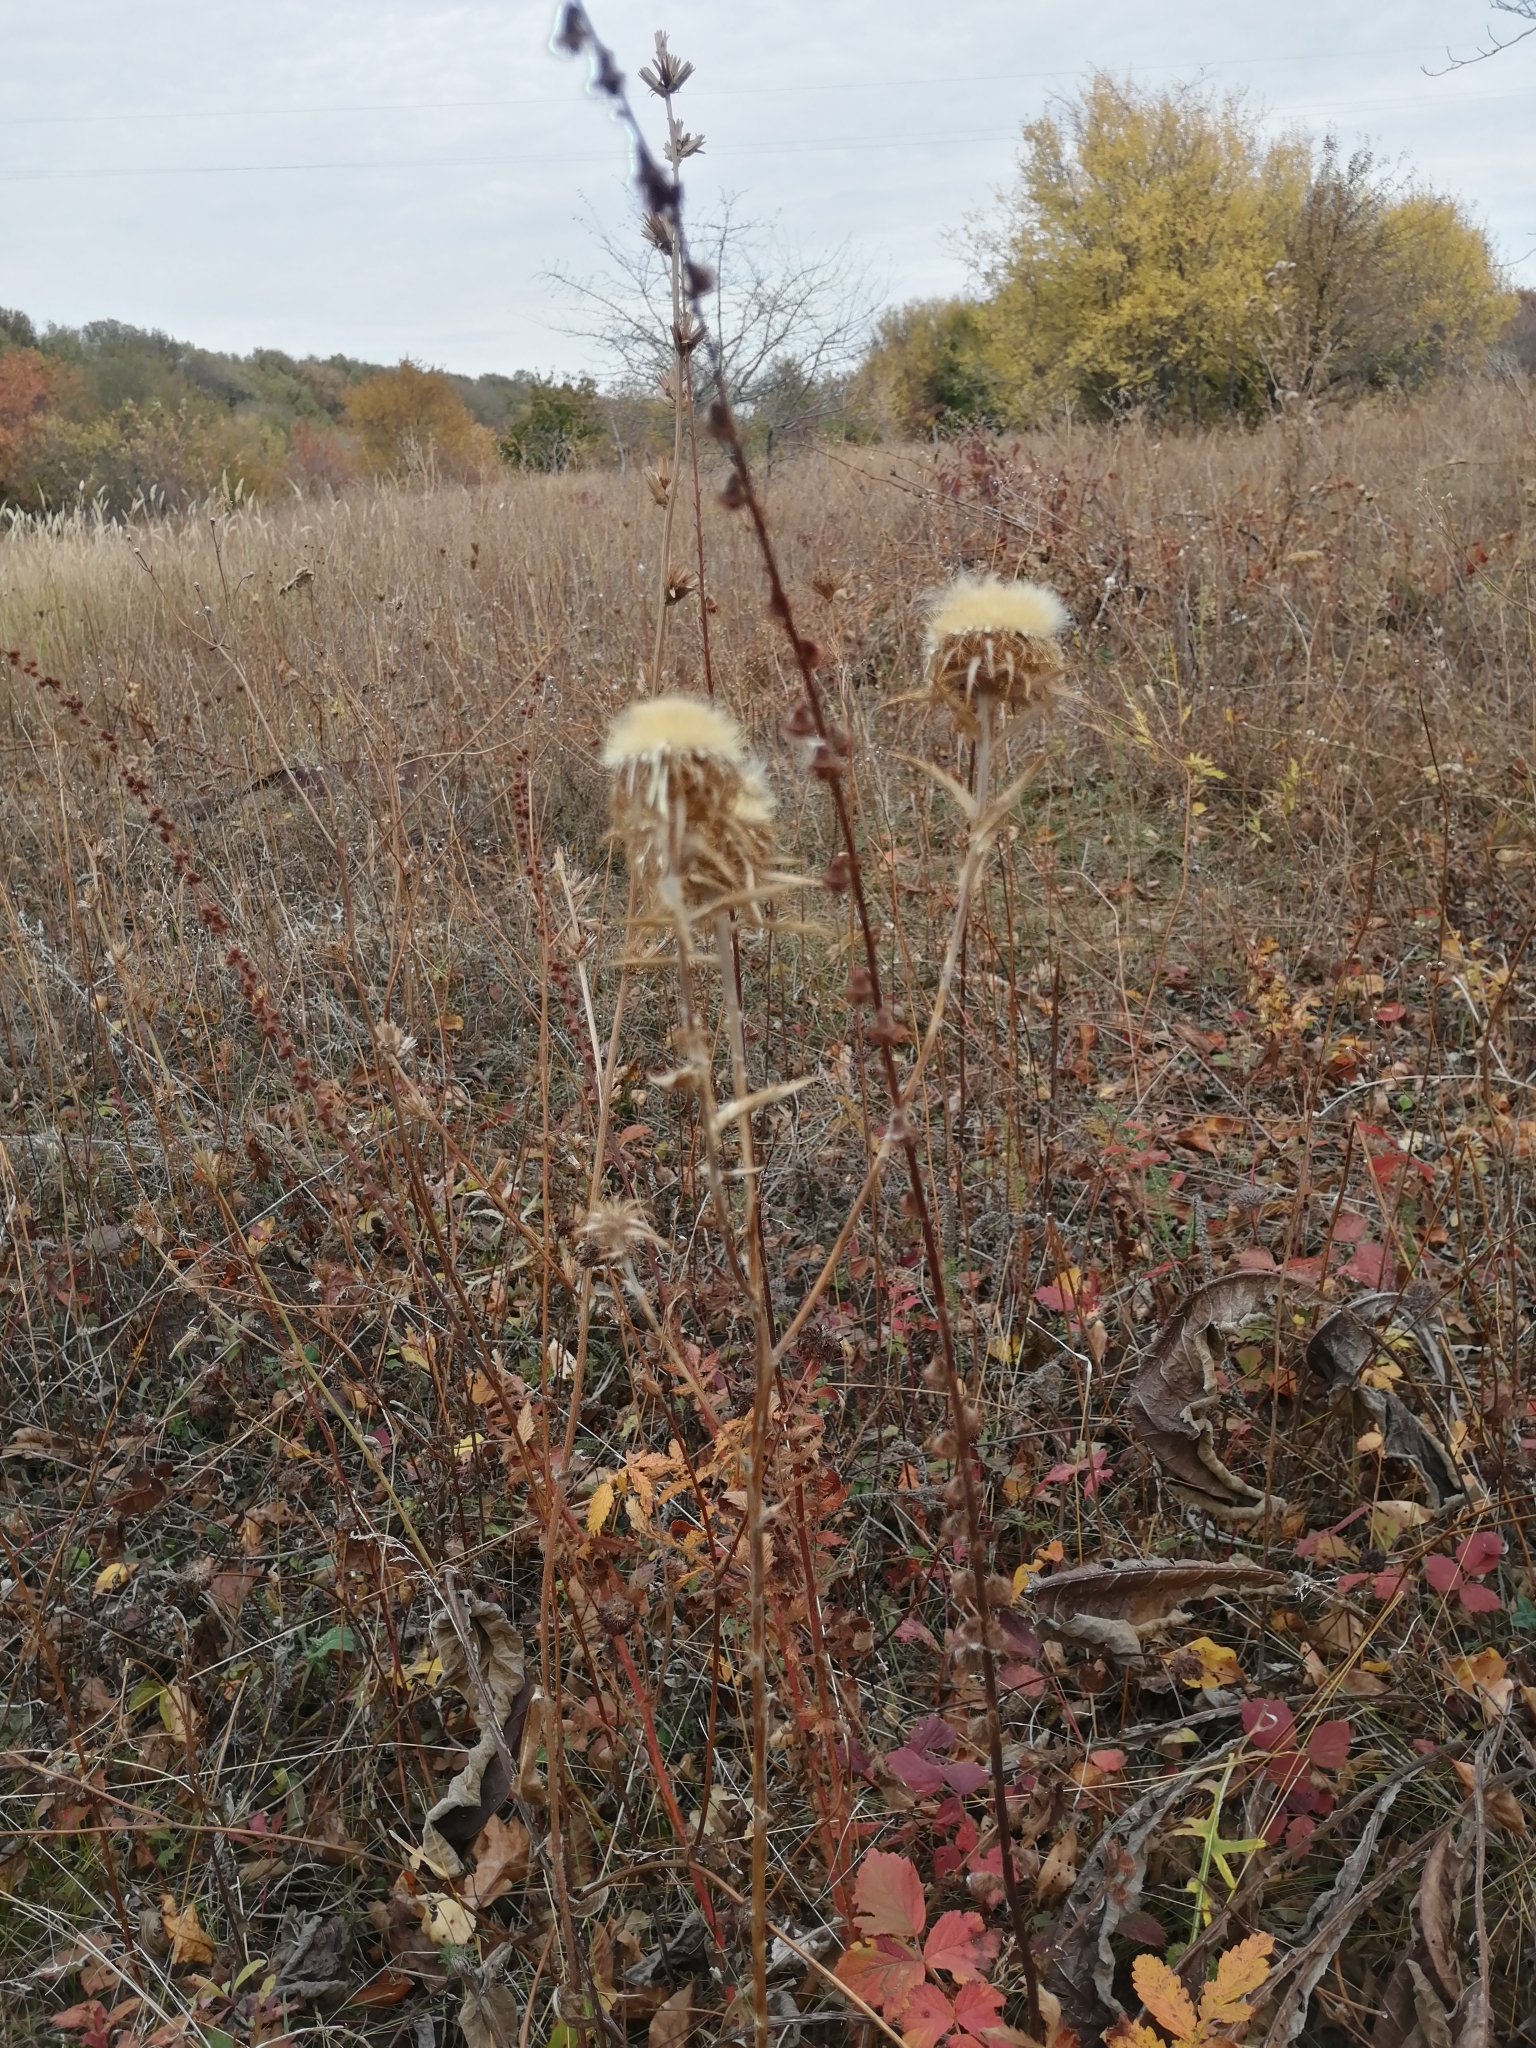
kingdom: Plantae
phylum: Tracheophyta
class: Magnoliopsida
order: Asterales
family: Asteraceae
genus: Carlina
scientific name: Carlina biebersteinii
